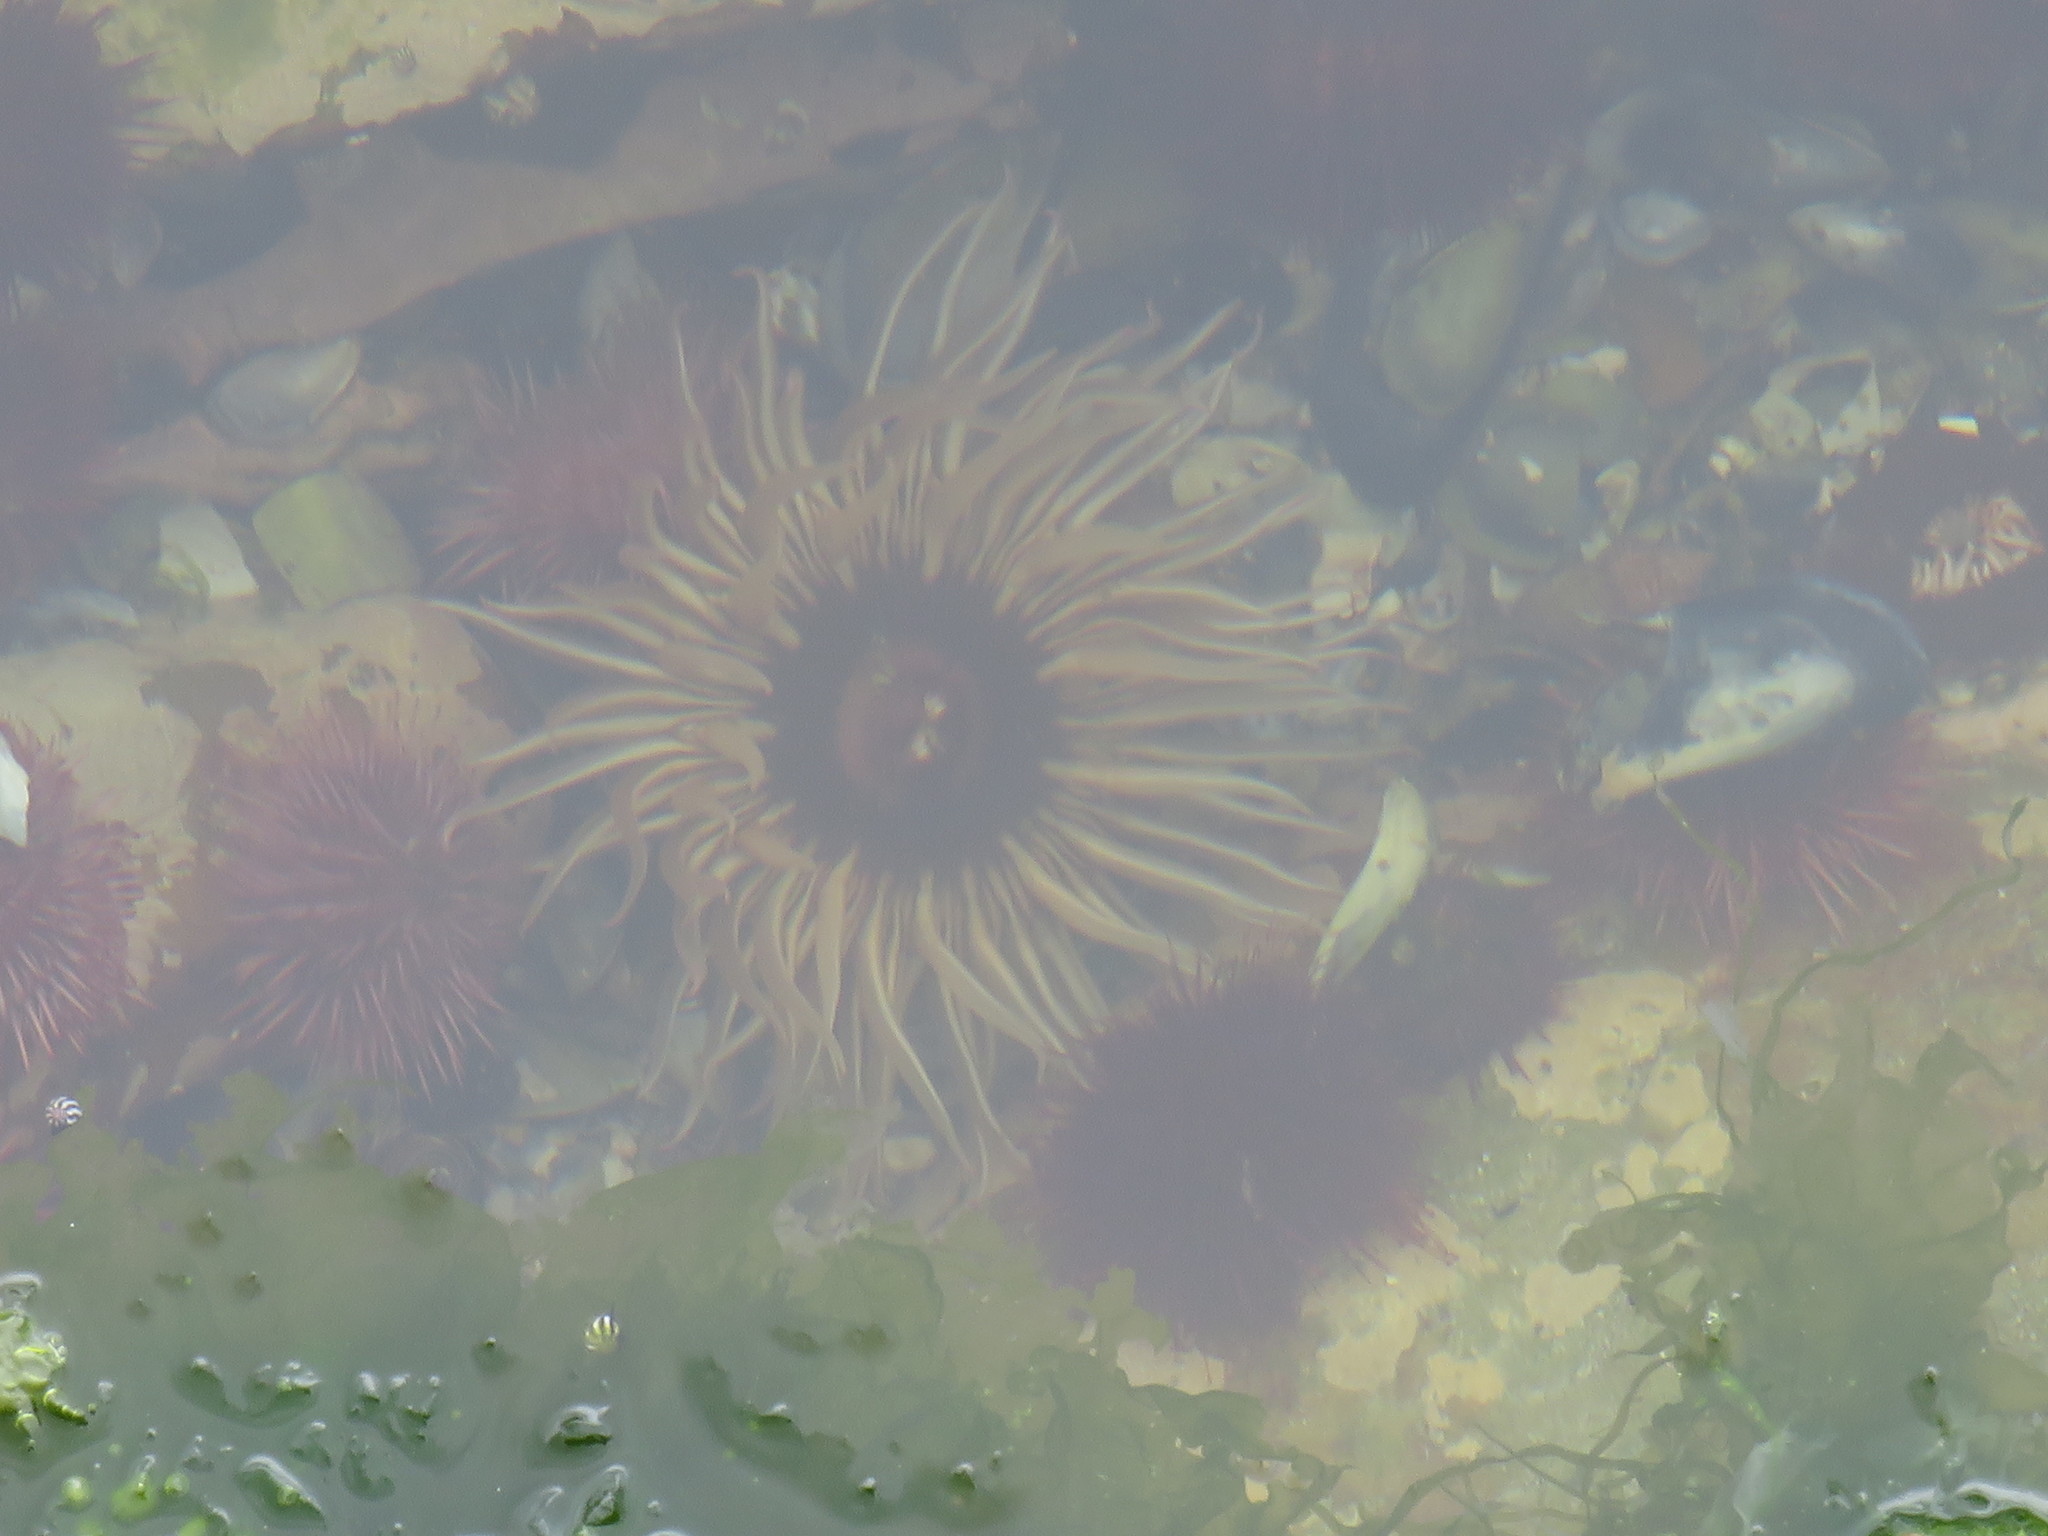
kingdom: Animalia
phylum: Cnidaria
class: Anthozoa
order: Actiniaria
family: Actiniidae
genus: Anthopleura
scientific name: Anthopleura michaelseni
